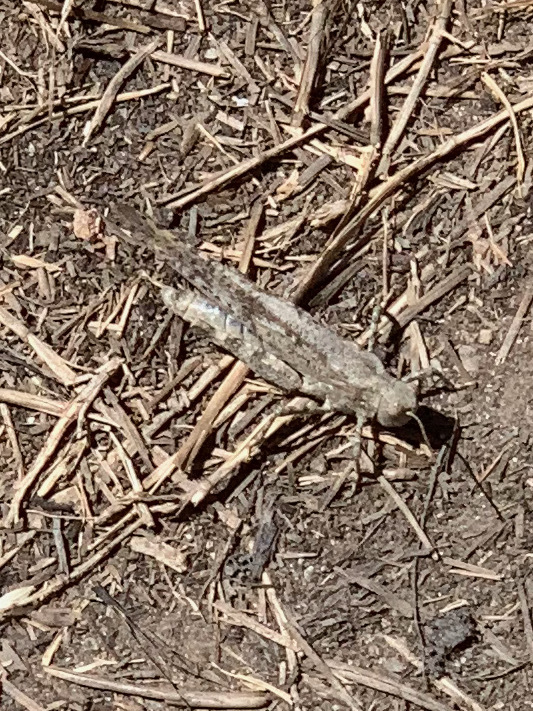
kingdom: Animalia
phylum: Arthropoda
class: Insecta
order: Orthoptera
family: Acrididae
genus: Dissosteira
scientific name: Dissosteira carolina
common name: Carolina grasshopper
